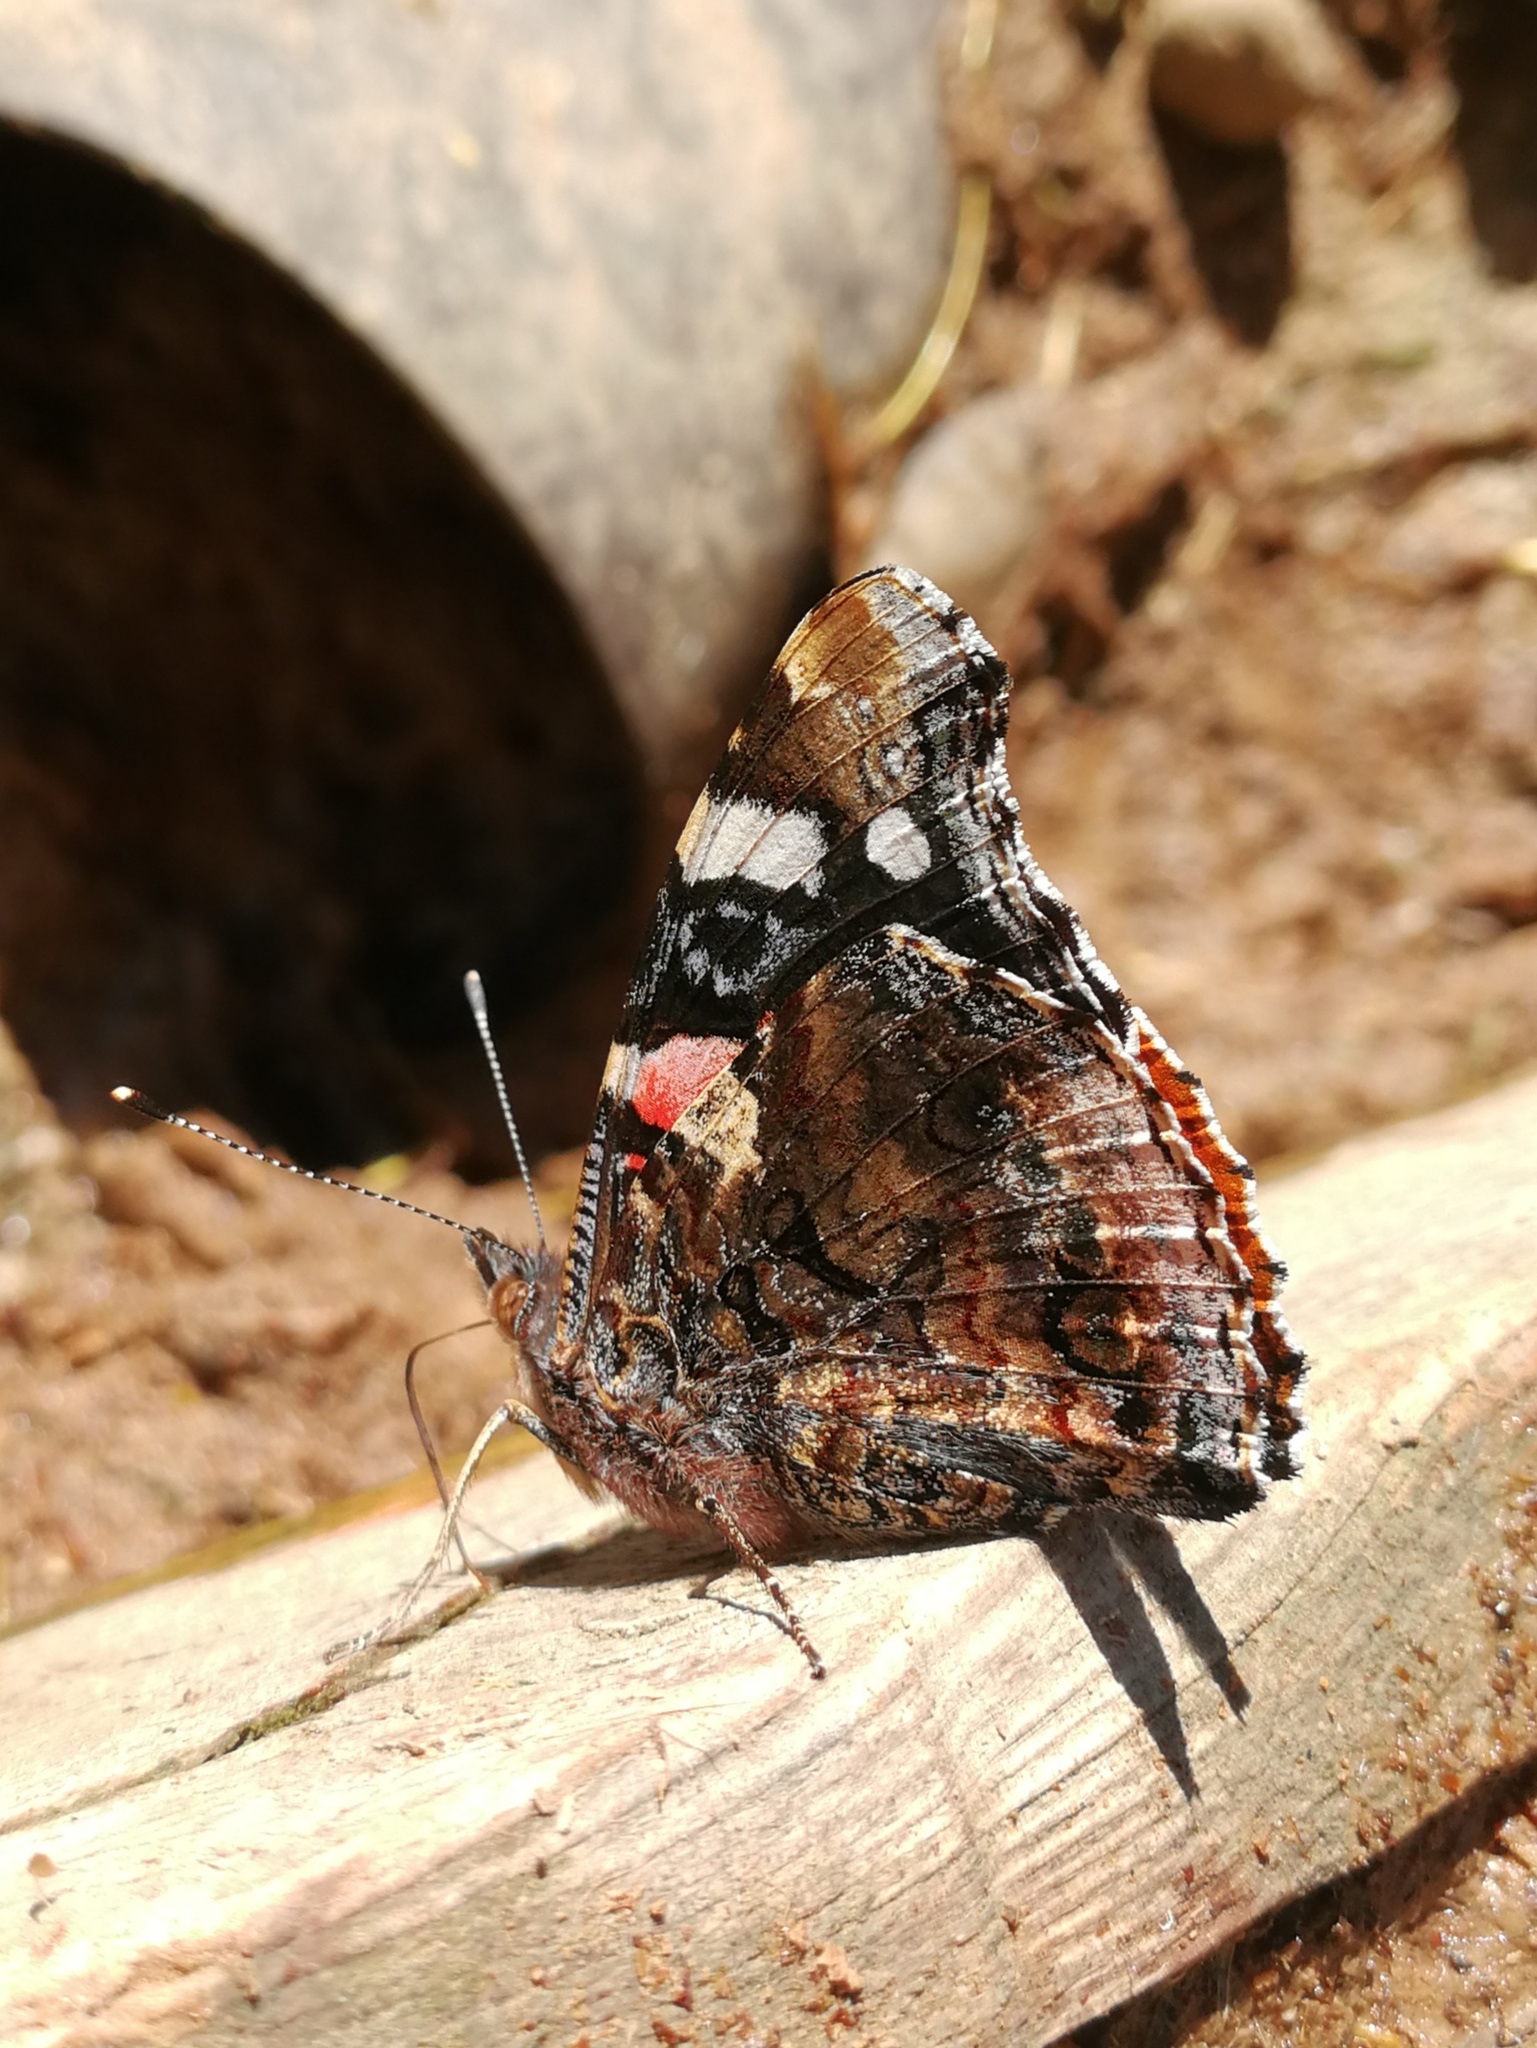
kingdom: Animalia
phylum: Arthropoda
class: Insecta
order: Lepidoptera
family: Nymphalidae
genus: Vanessa
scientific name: Vanessa atalanta
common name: Red admiral
